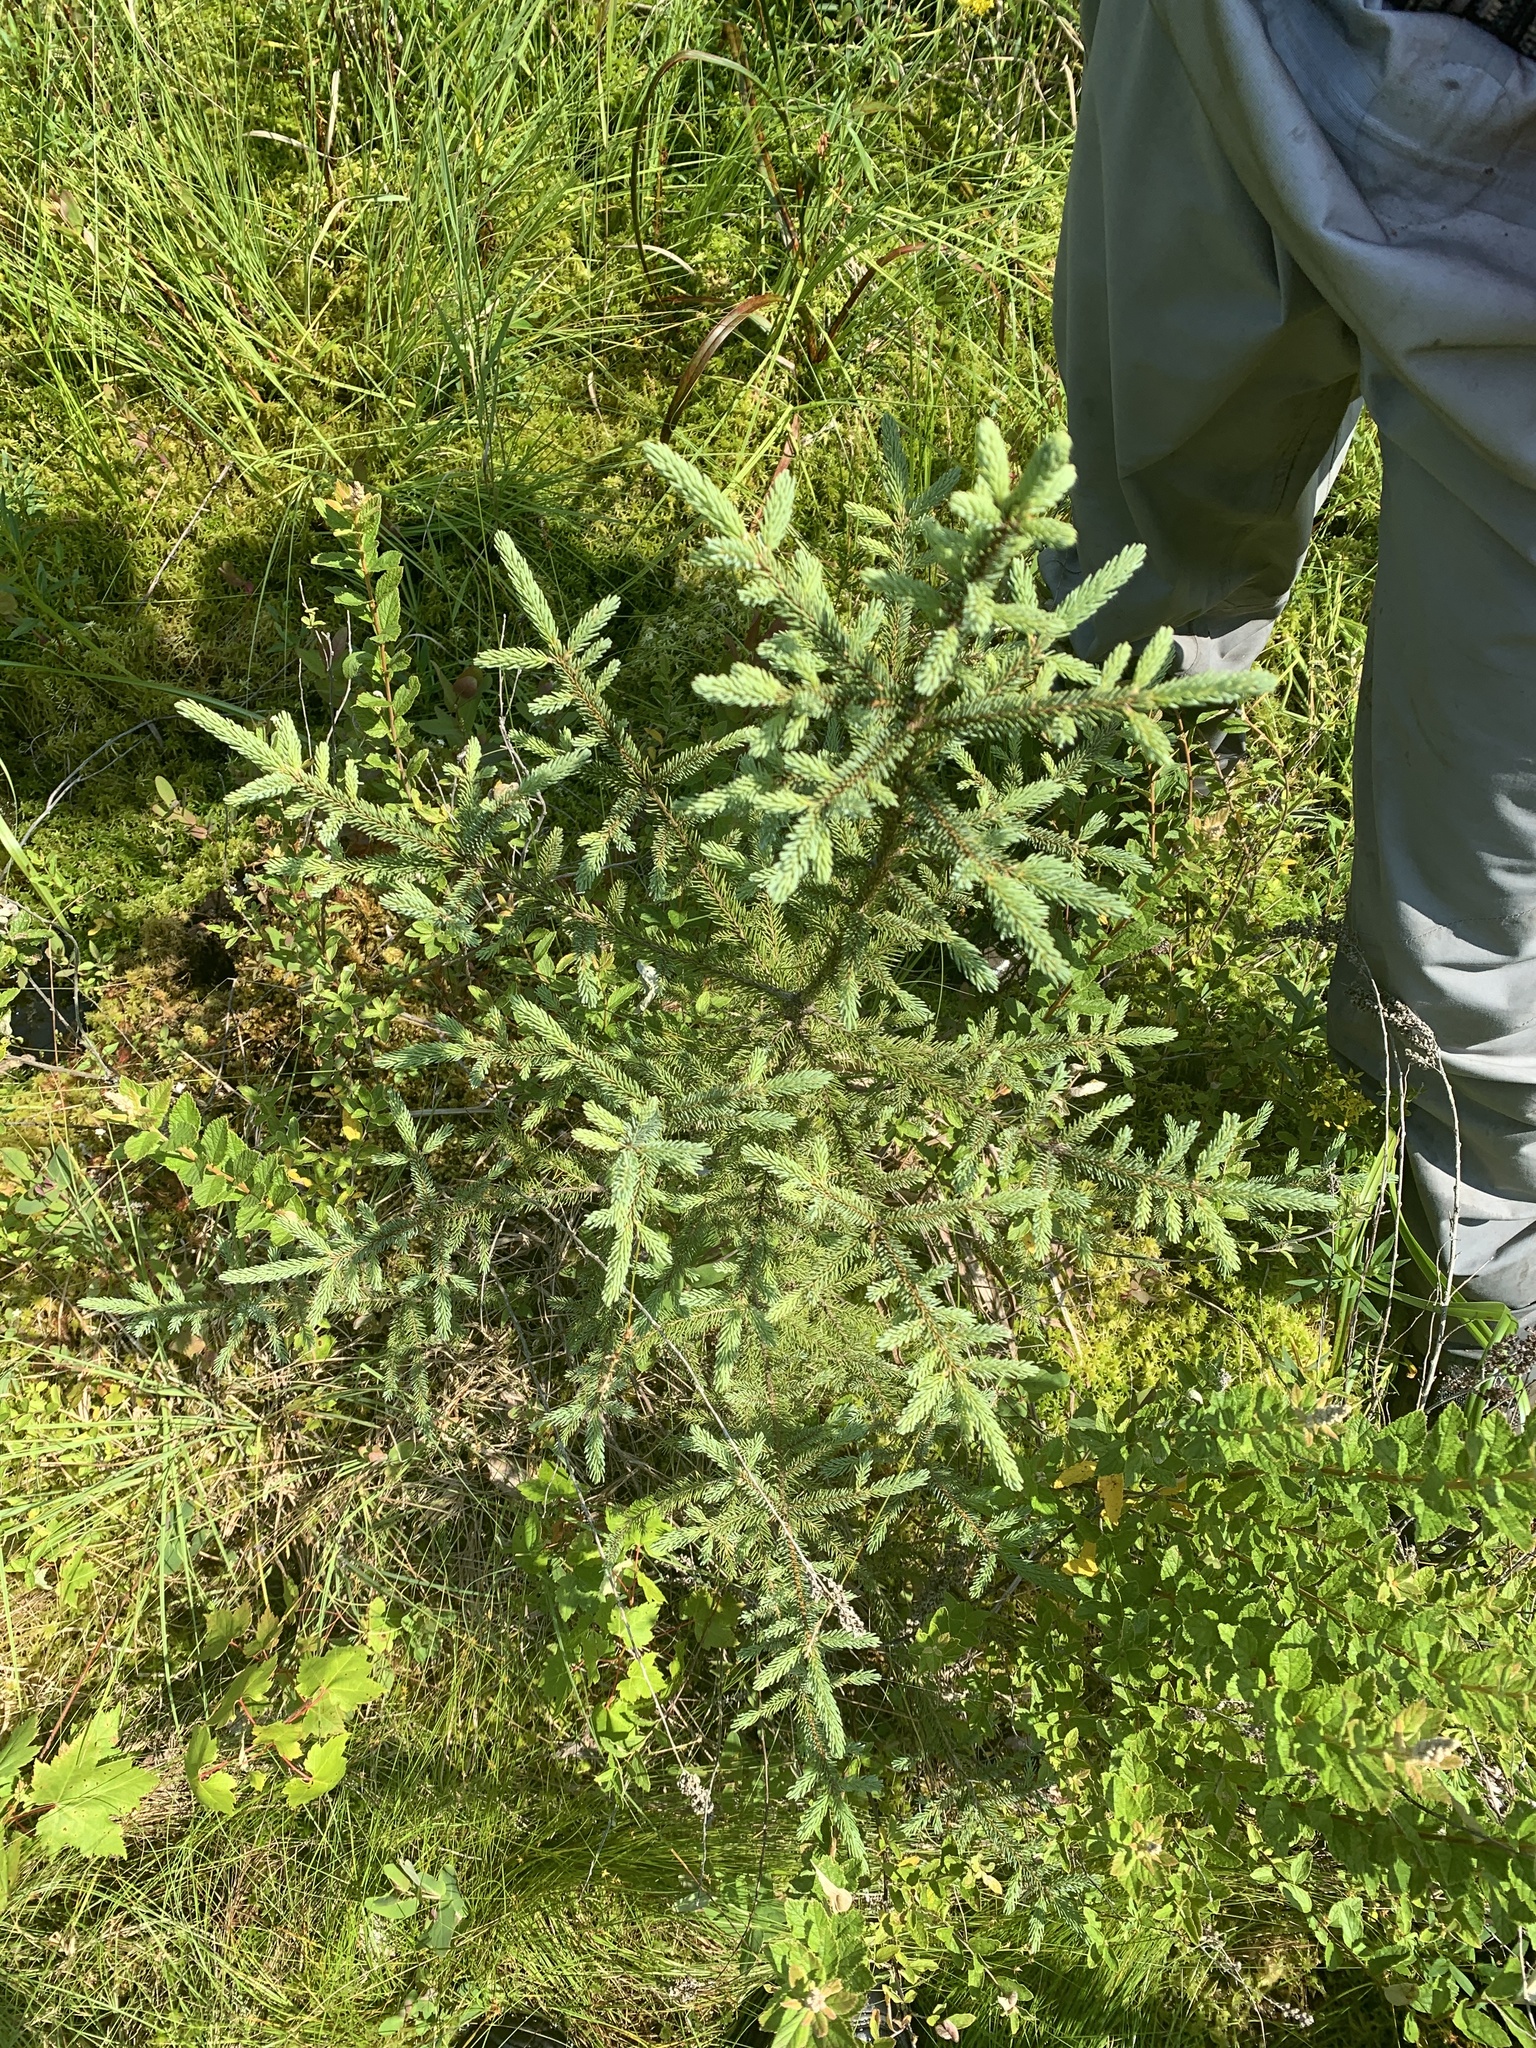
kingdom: Plantae
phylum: Tracheophyta
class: Pinopsida
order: Pinales
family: Pinaceae
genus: Picea
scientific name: Picea mariana
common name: Black spruce
